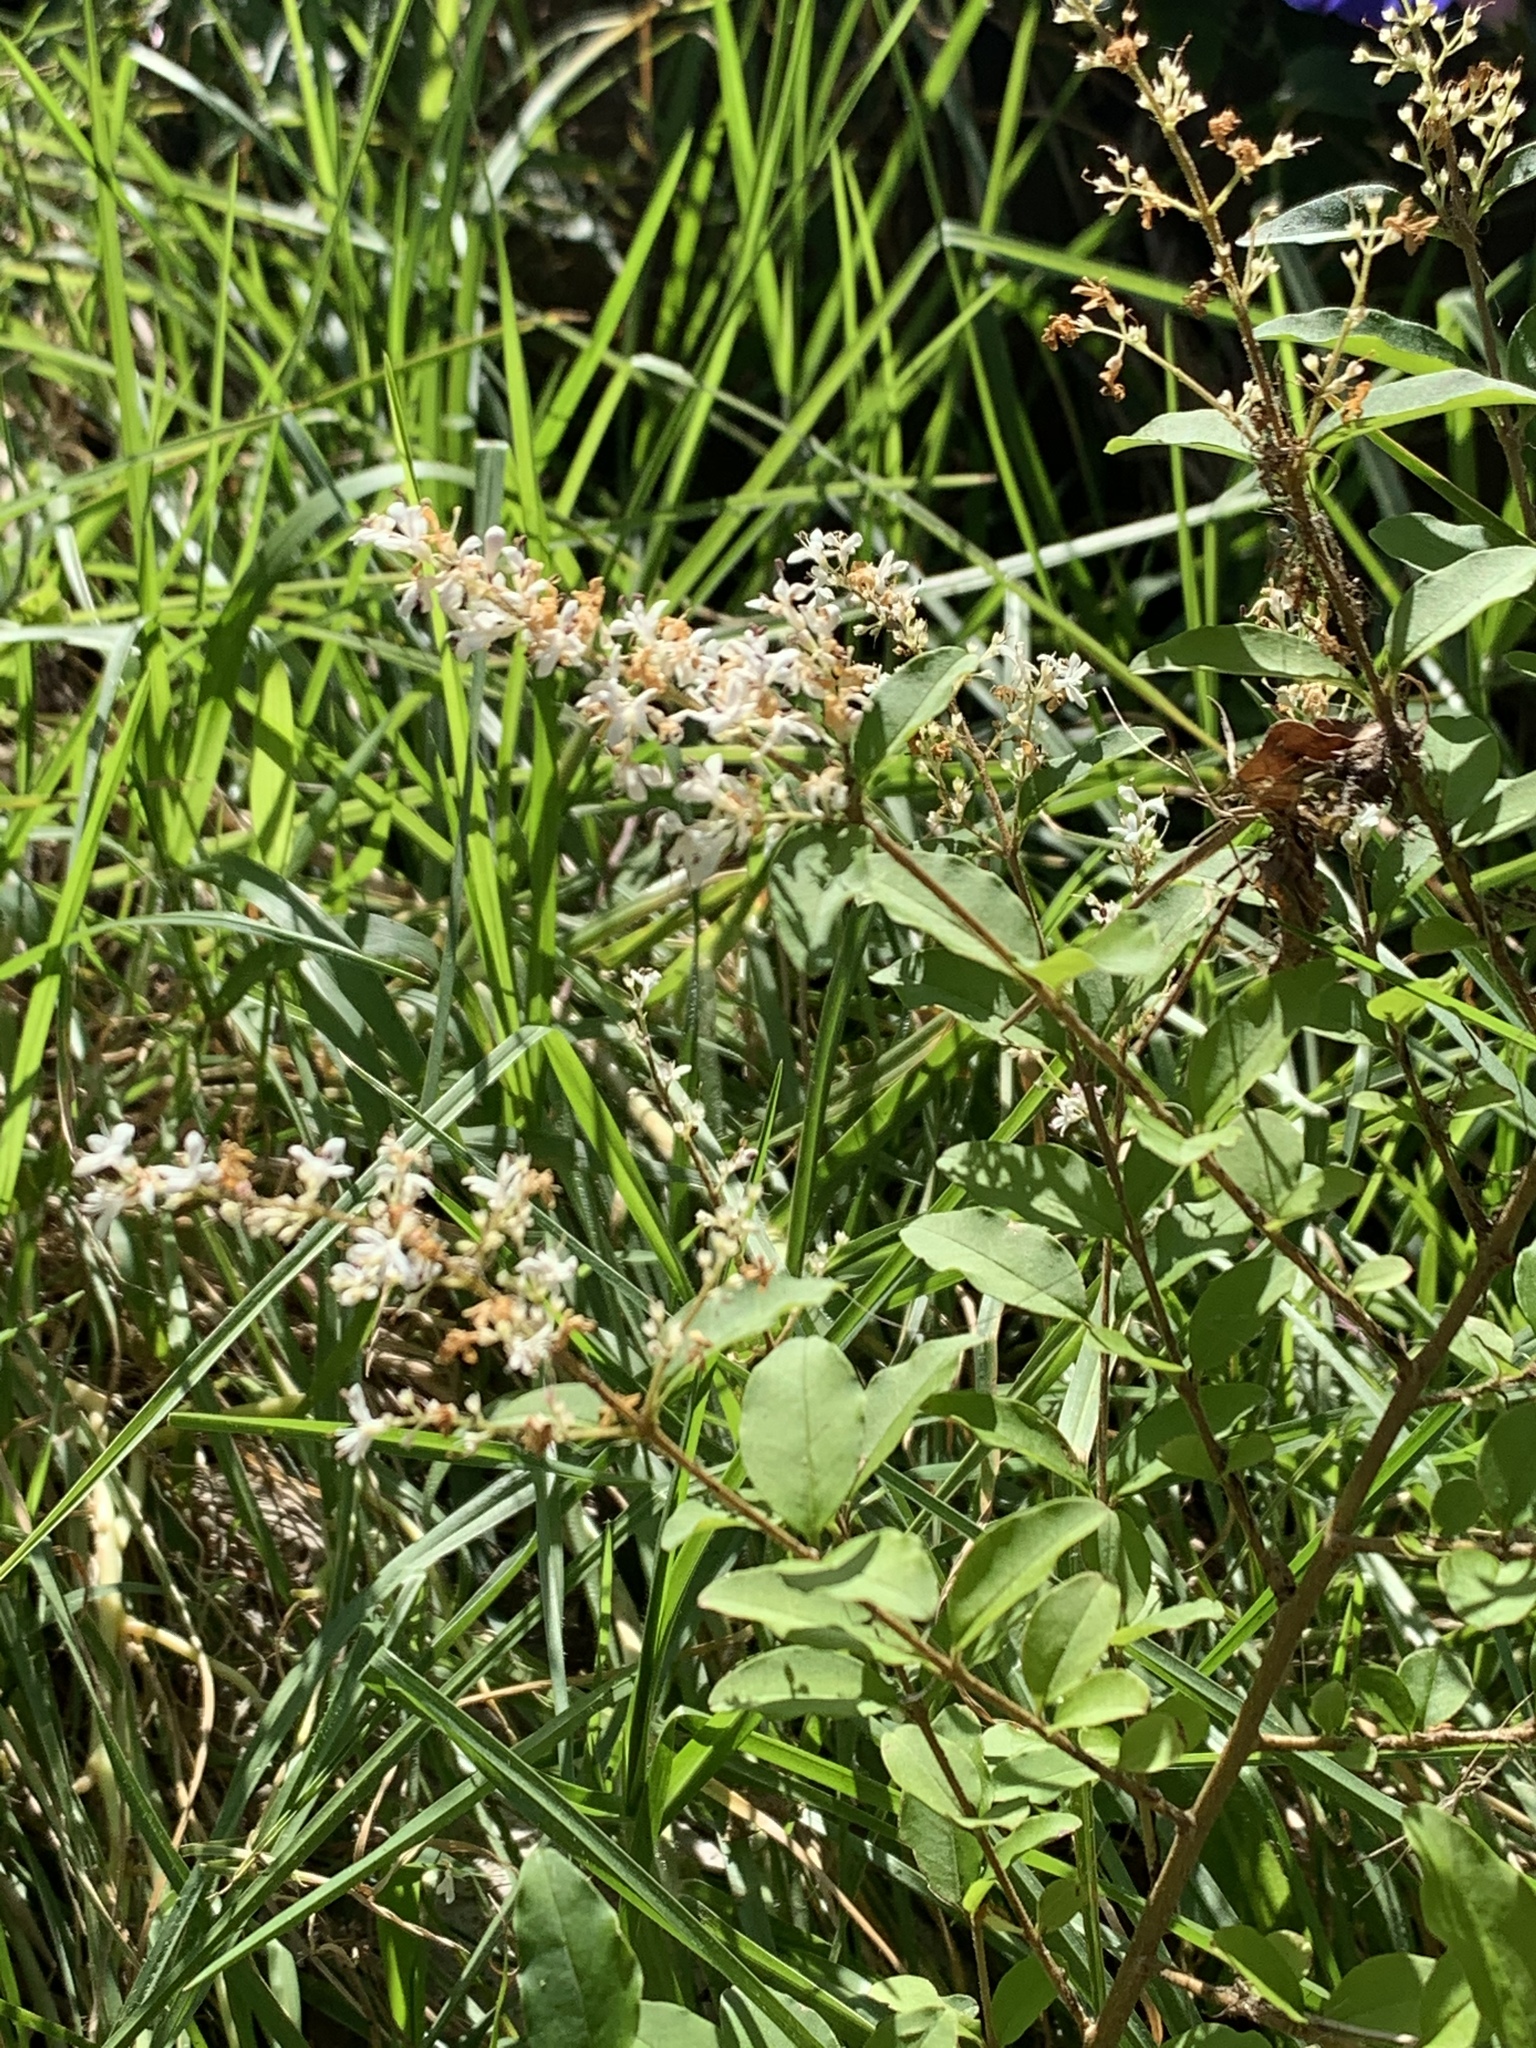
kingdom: Plantae
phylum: Tracheophyta
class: Magnoliopsida
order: Lamiales
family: Oleaceae
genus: Ligustrum
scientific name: Ligustrum sinense
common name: Chinese privet
